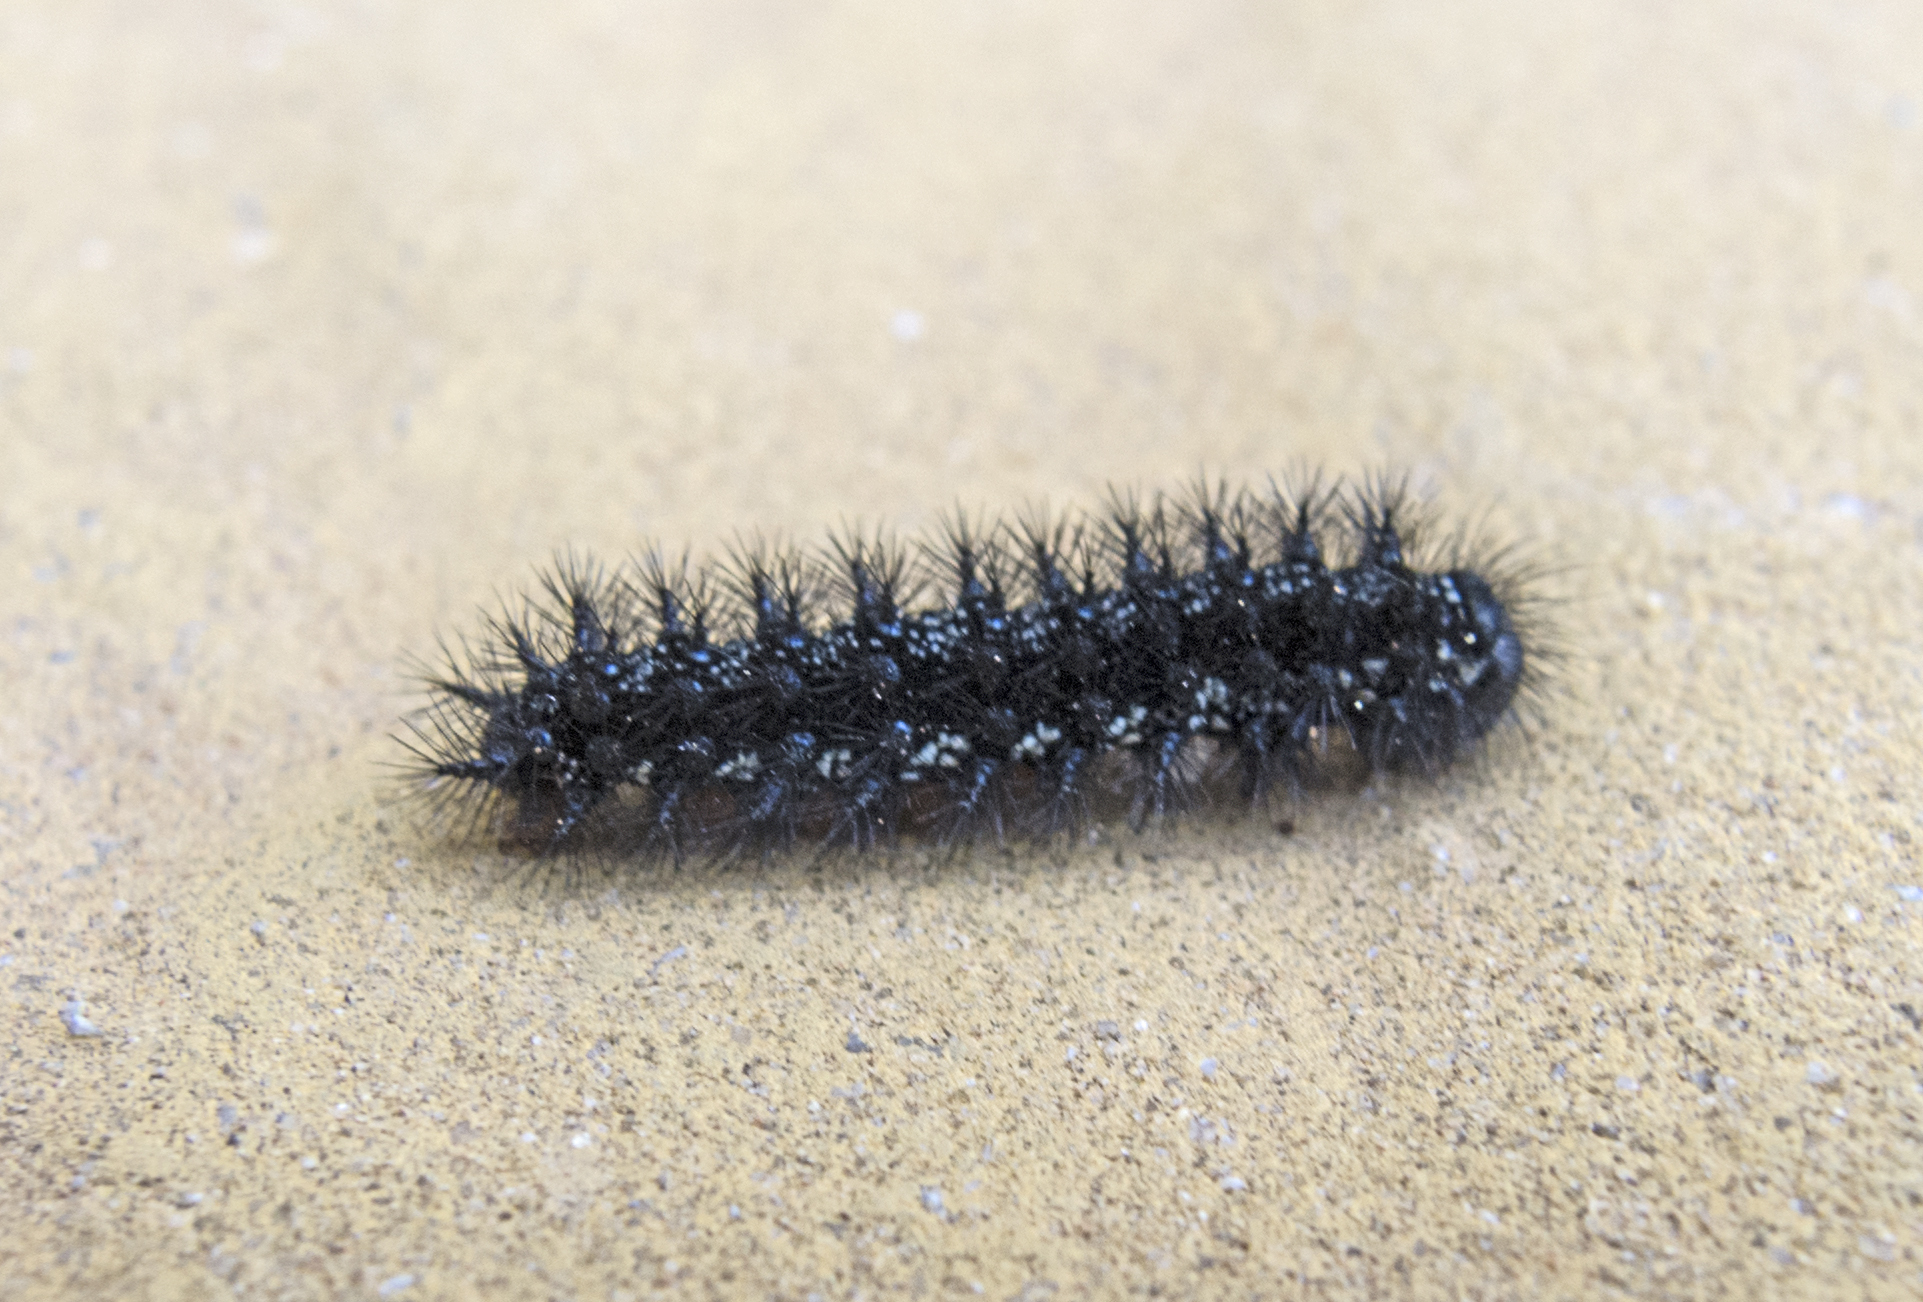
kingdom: Animalia
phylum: Arthropoda
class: Insecta
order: Lepidoptera
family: Nymphalidae
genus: Euphydryas
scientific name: Euphydryas aurinia
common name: Marsh fritillary
